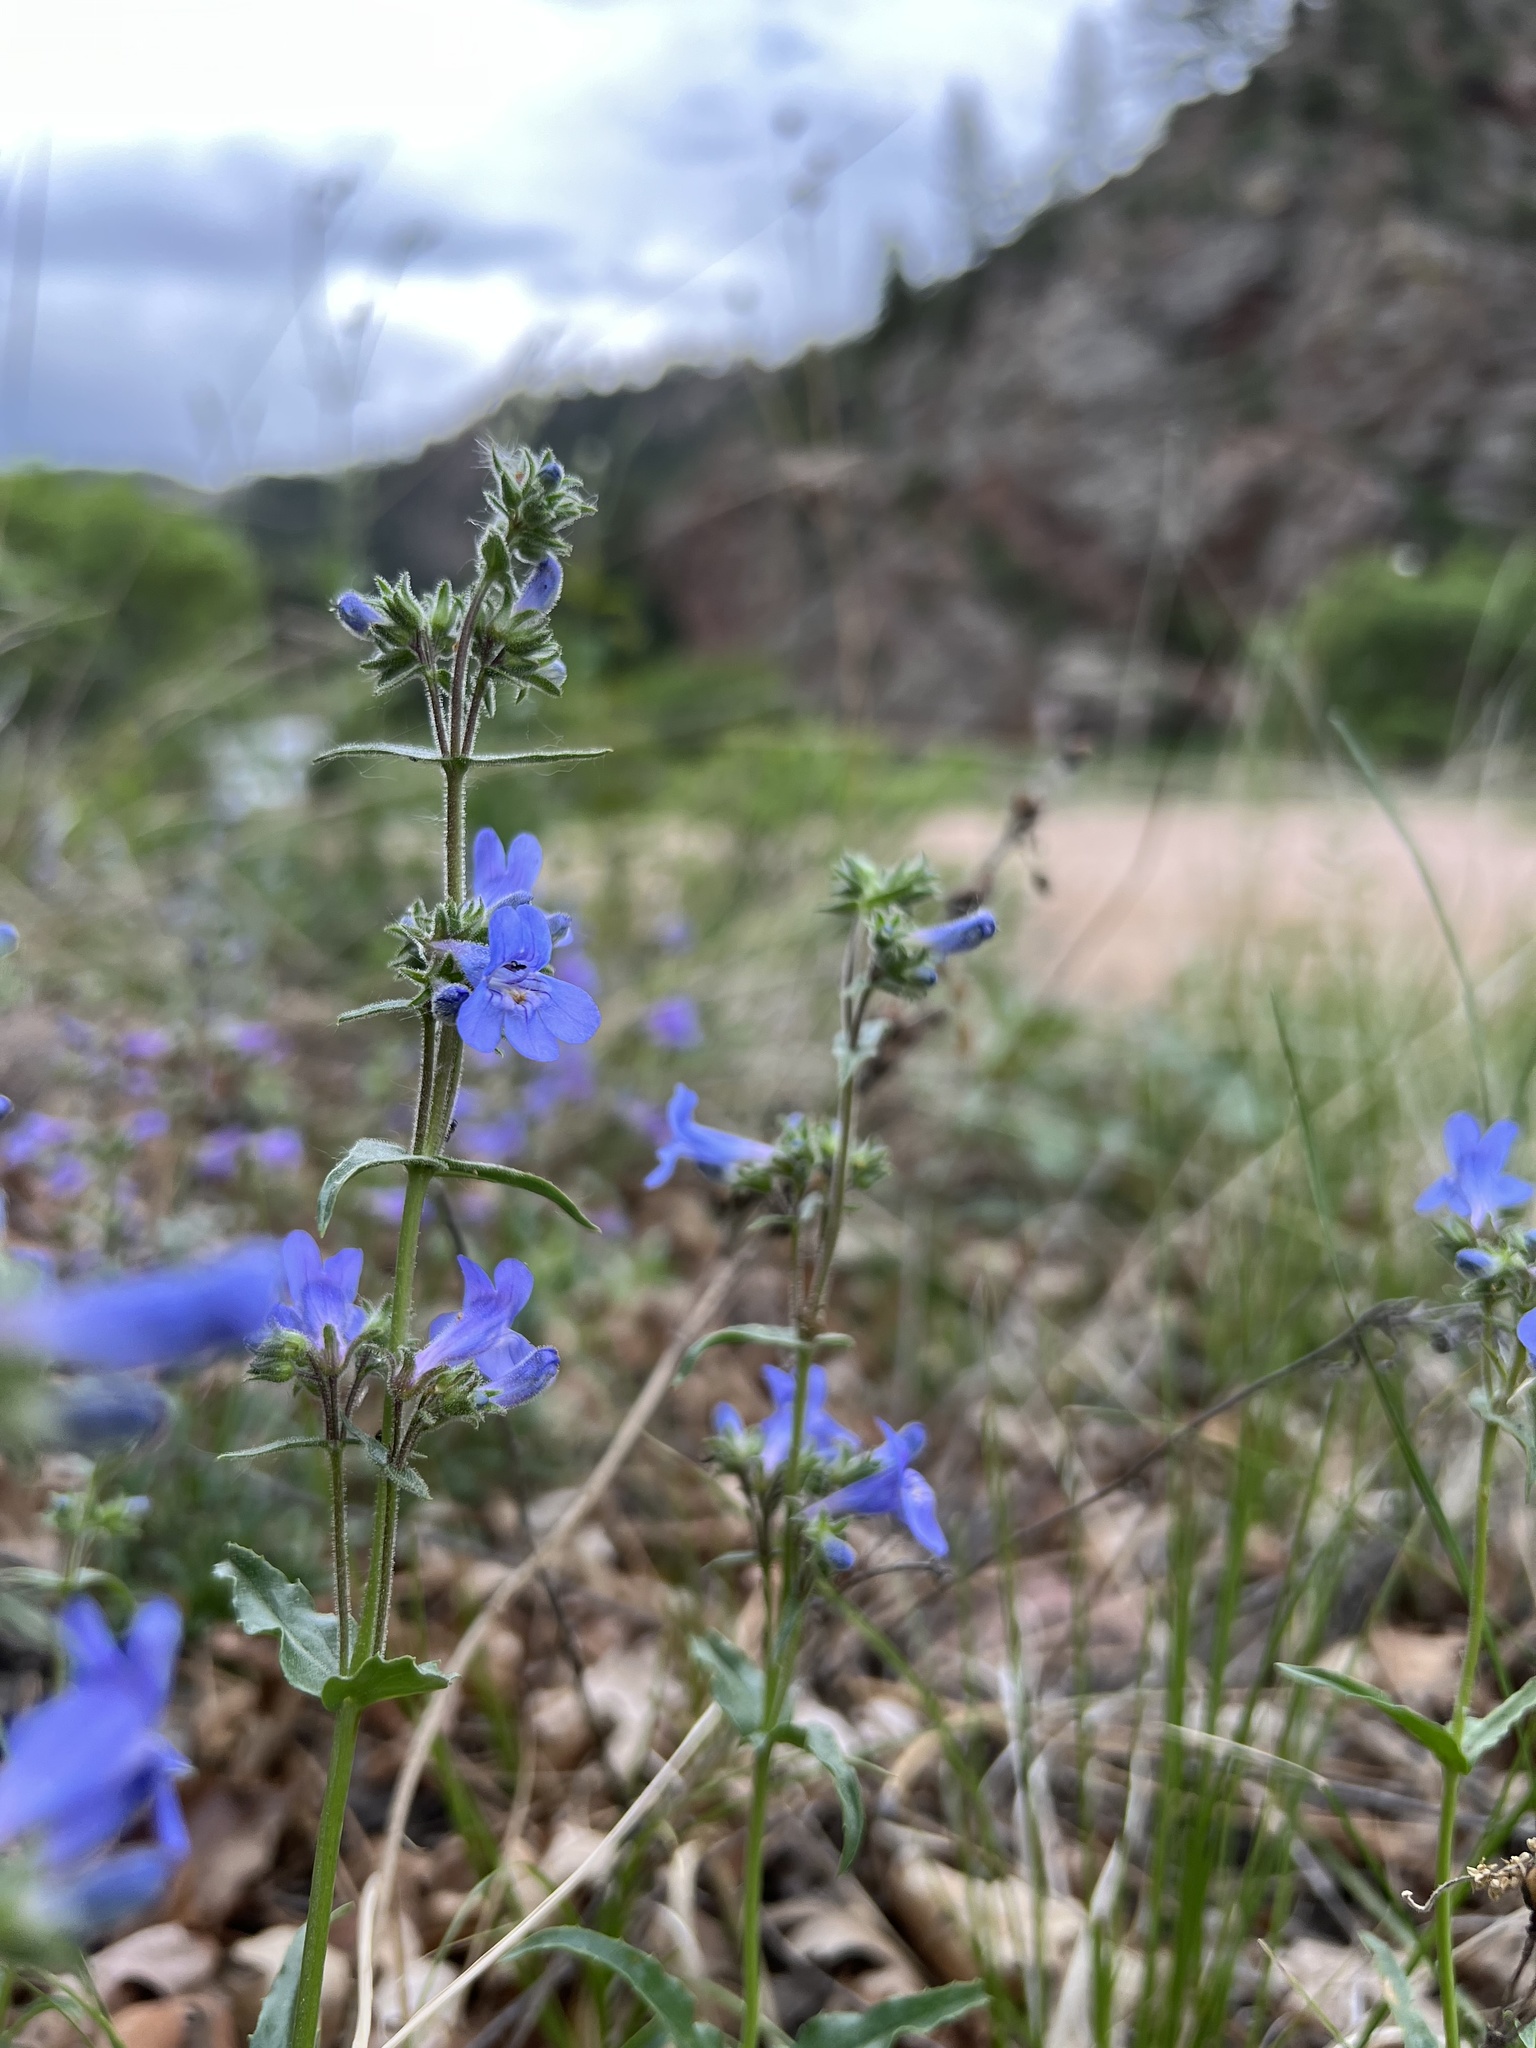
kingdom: Plantae
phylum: Tracheophyta
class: Magnoliopsida
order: Lamiales
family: Plantaginaceae
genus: Penstemon
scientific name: Penstemon virens
